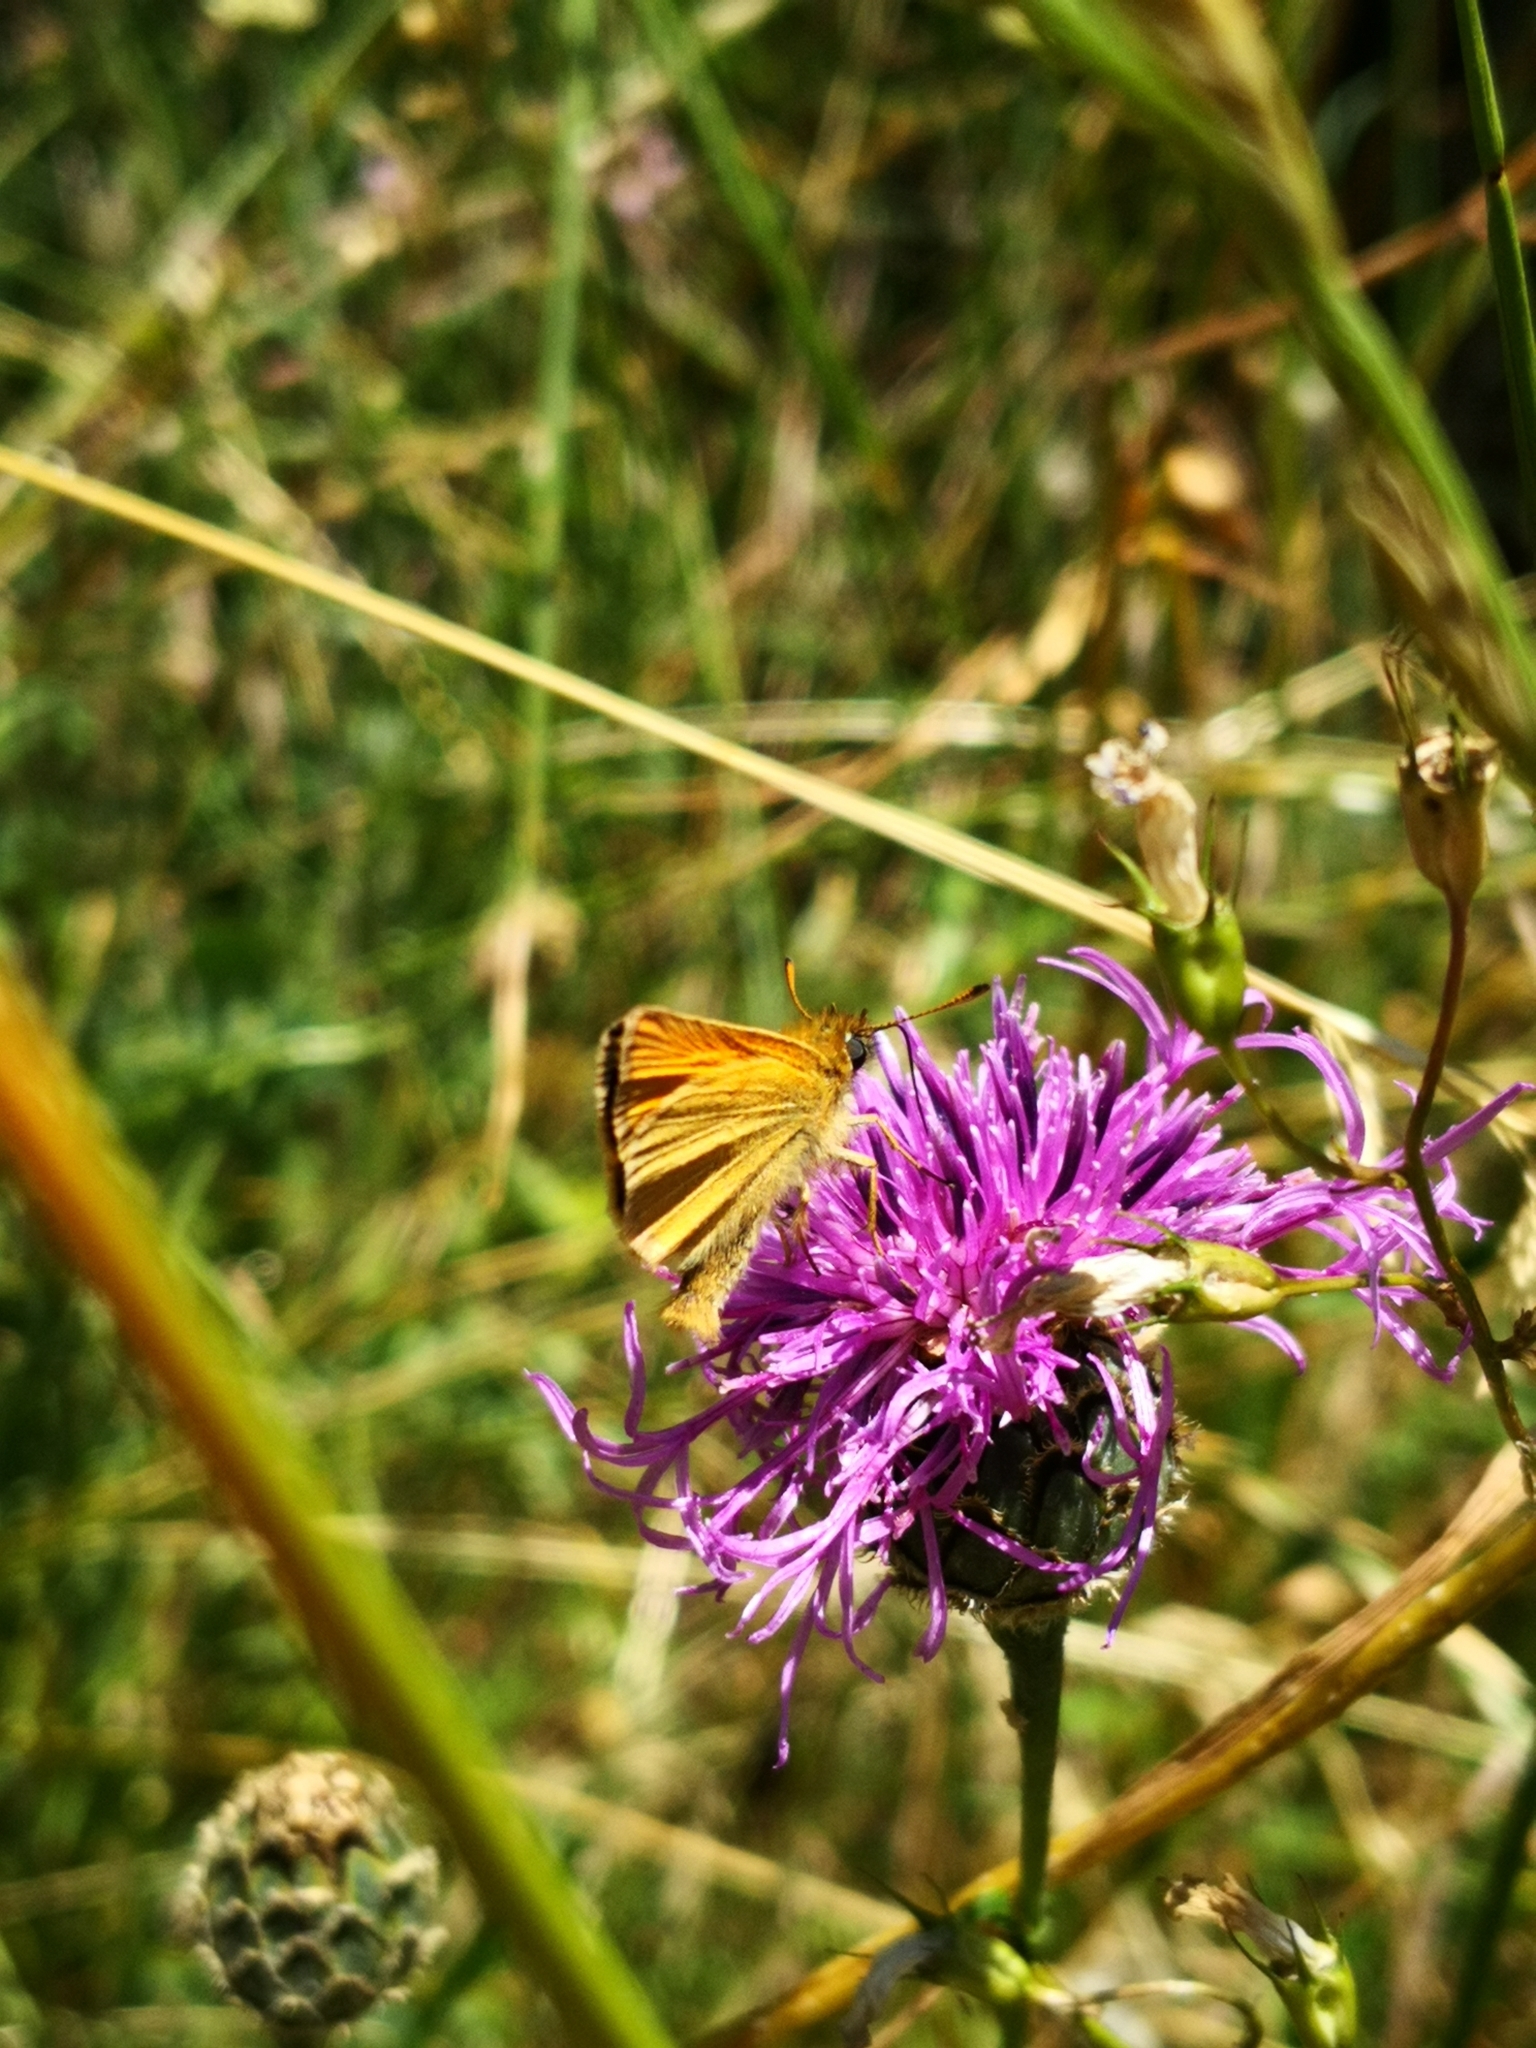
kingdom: Animalia
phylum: Arthropoda
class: Insecta
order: Lepidoptera
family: Hesperiidae
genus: Thymelicus
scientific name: Thymelicus lineola
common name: Essex skipper
